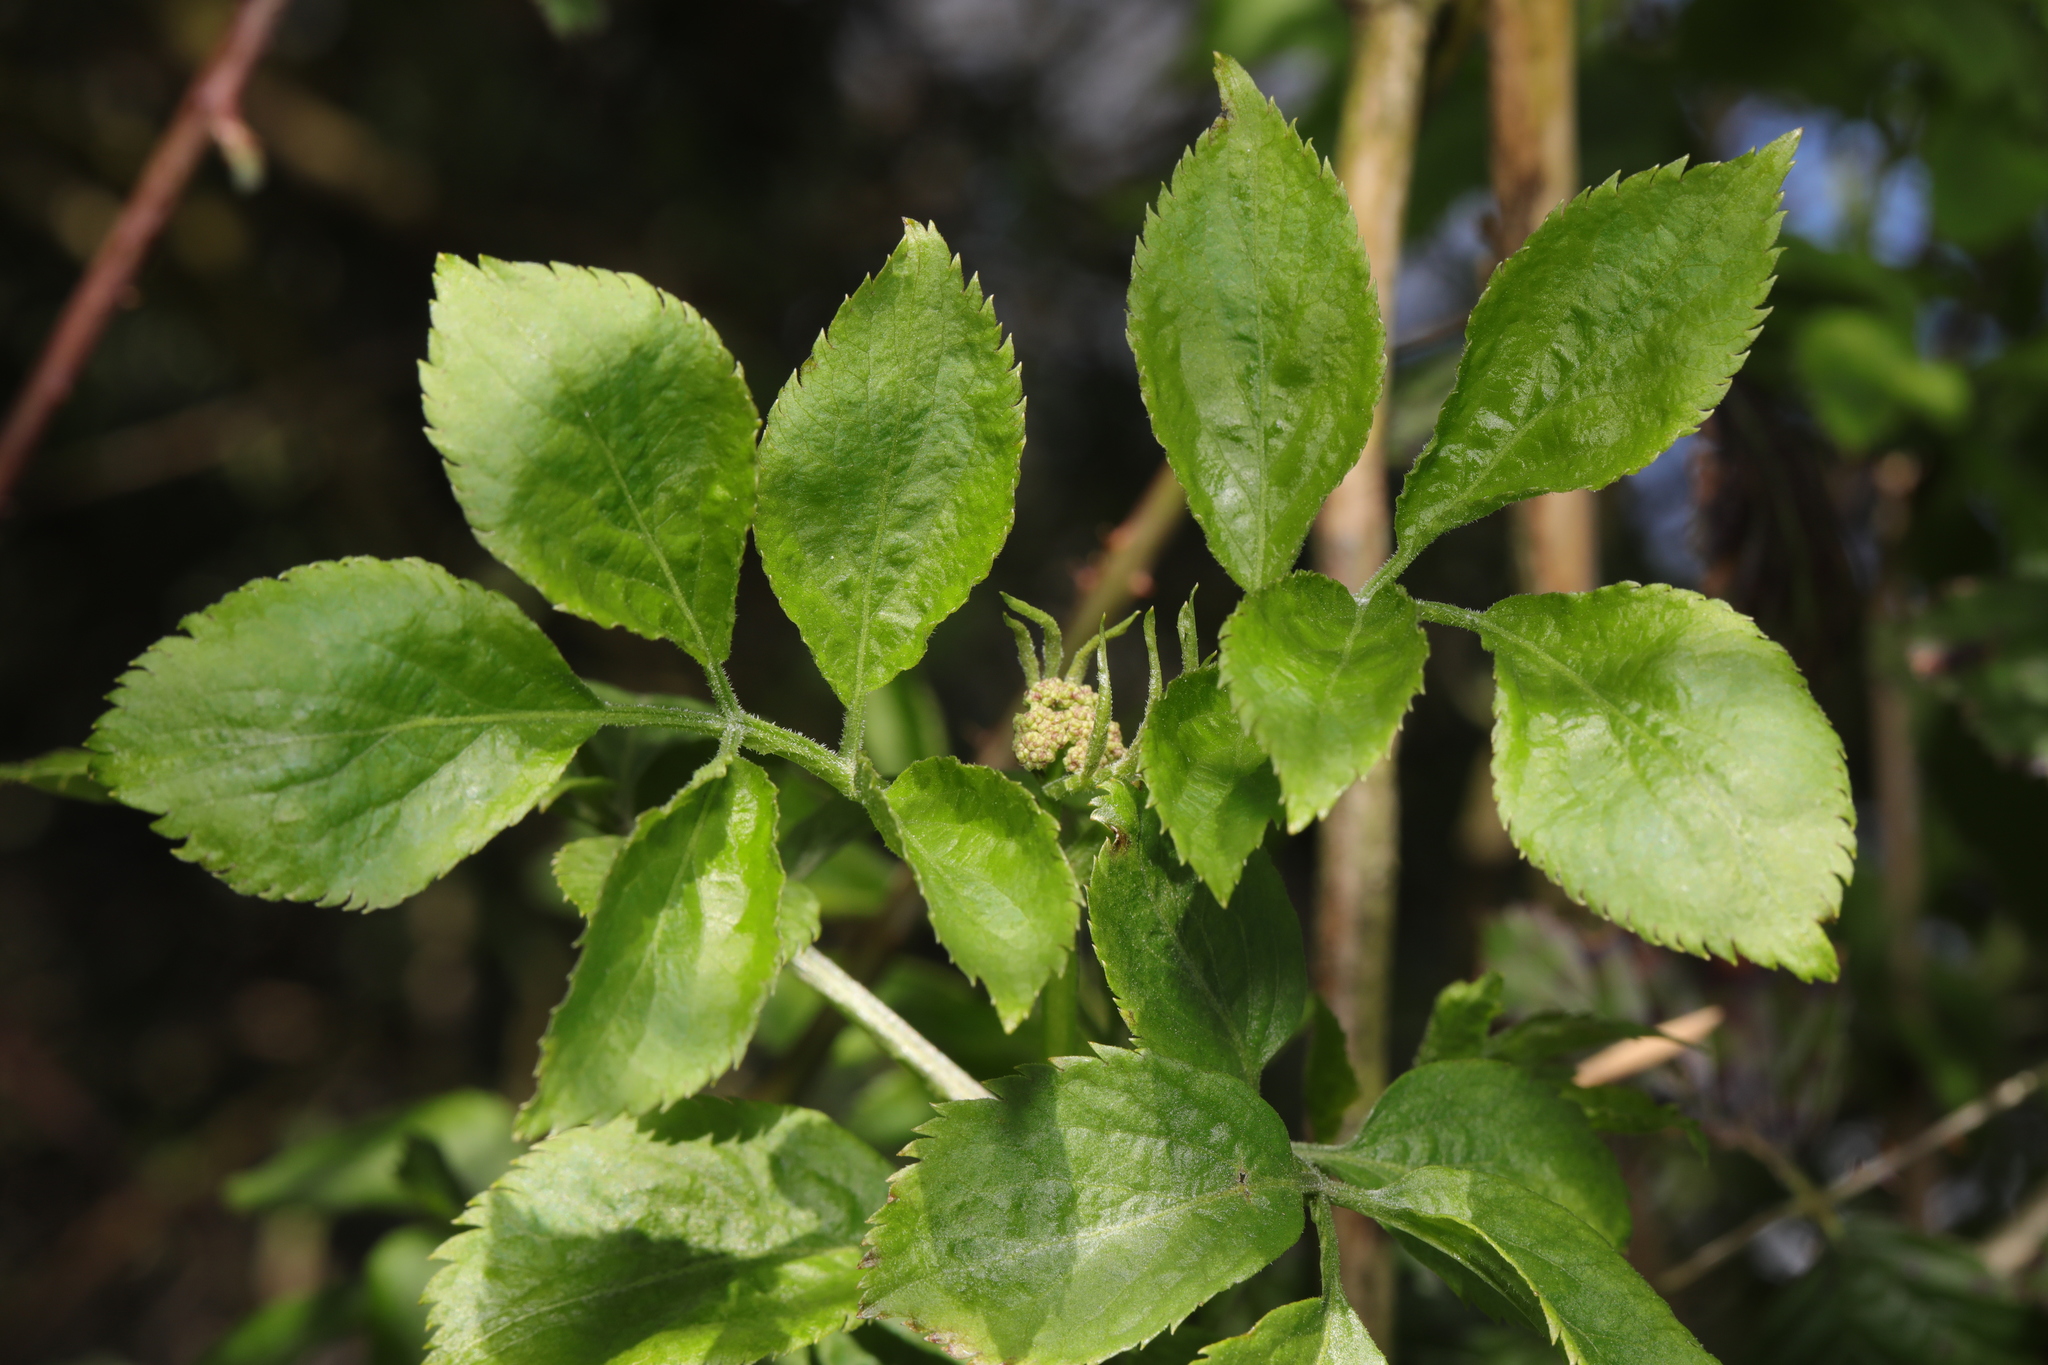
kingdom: Plantae
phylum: Tracheophyta
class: Magnoliopsida
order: Dipsacales
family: Viburnaceae
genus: Sambucus
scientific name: Sambucus nigra
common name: Elder
